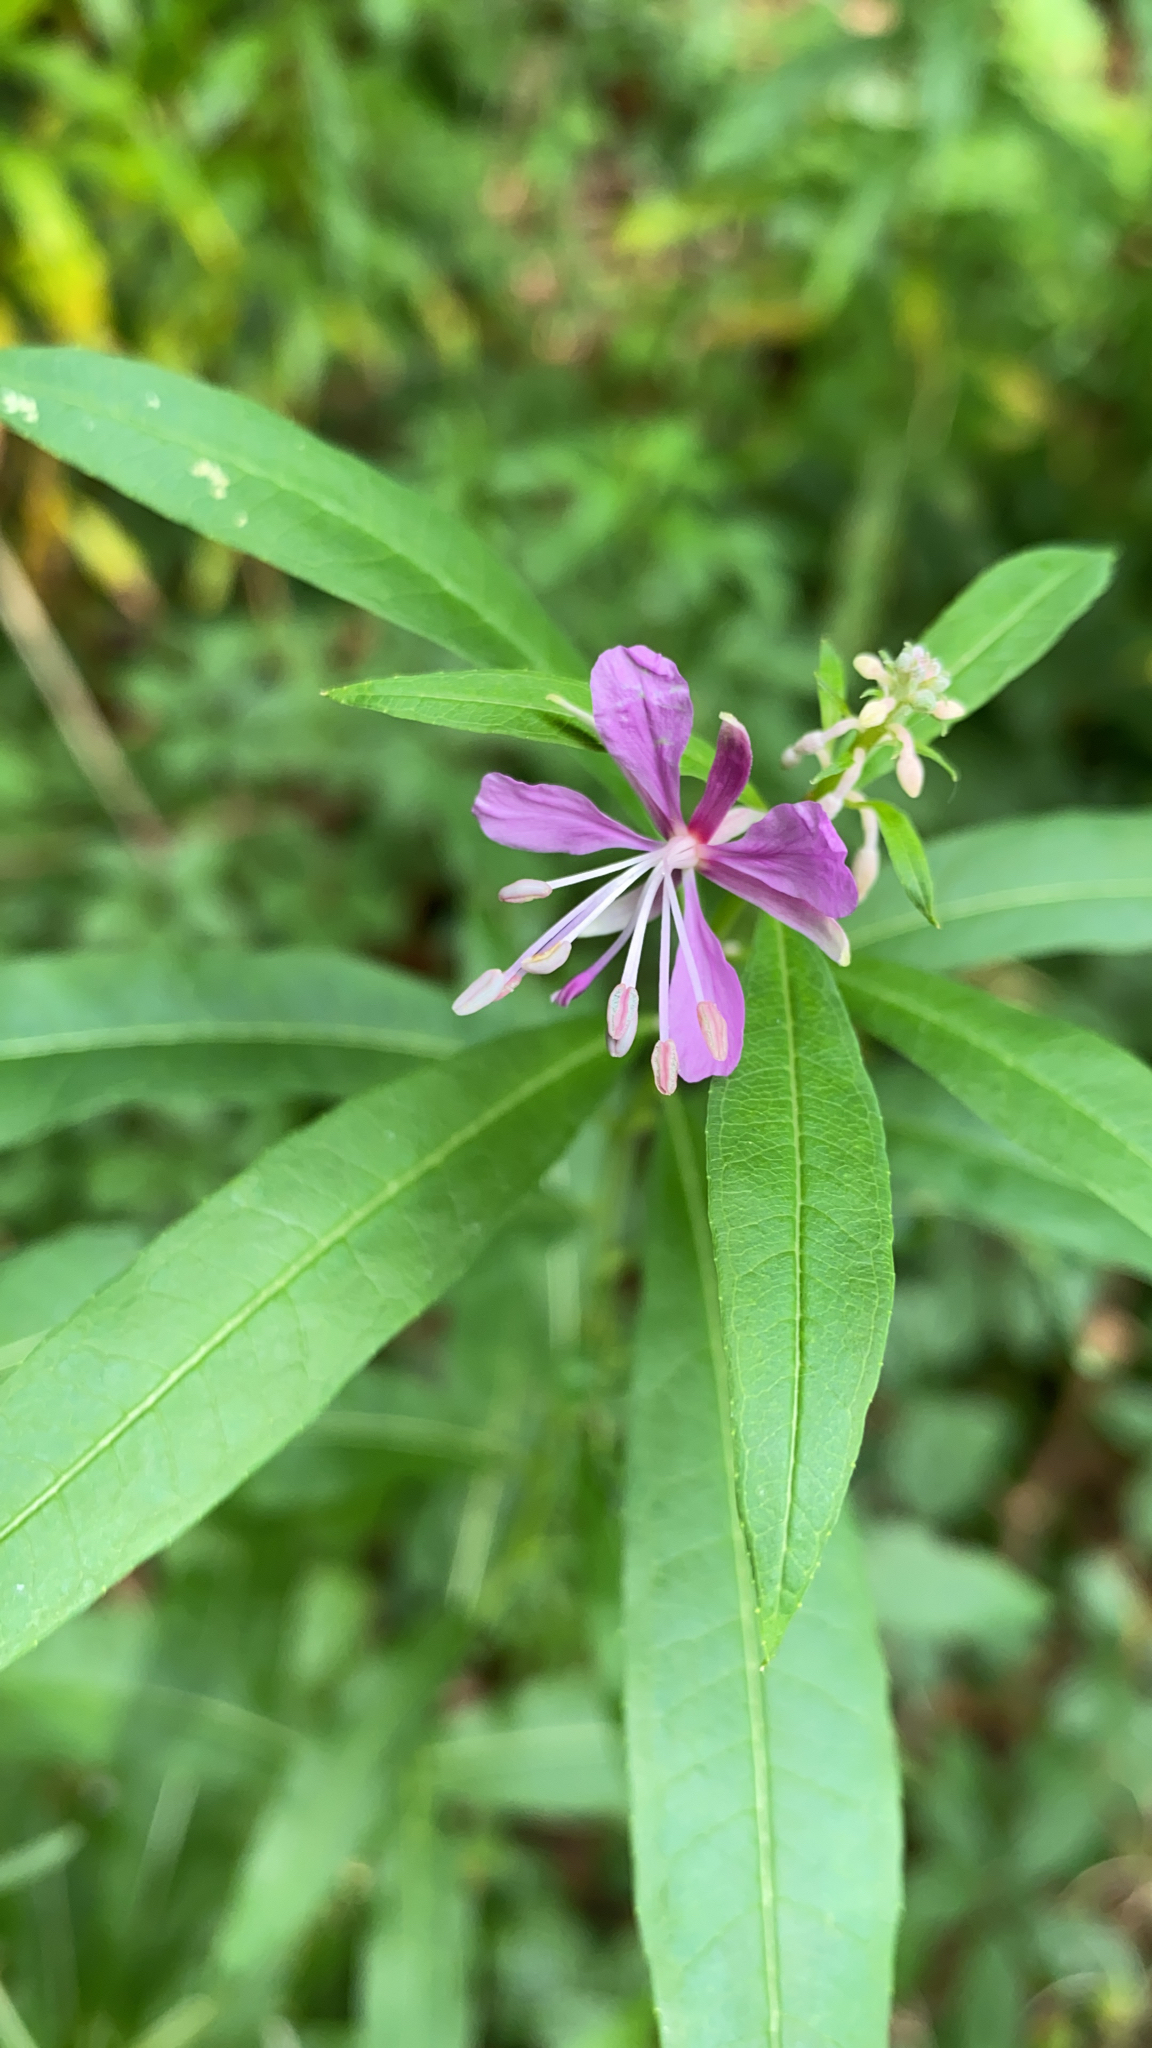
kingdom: Plantae
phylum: Tracheophyta
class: Magnoliopsida
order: Myrtales
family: Onagraceae
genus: Chamaenerion
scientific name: Chamaenerion angustifolium
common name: Fireweed
